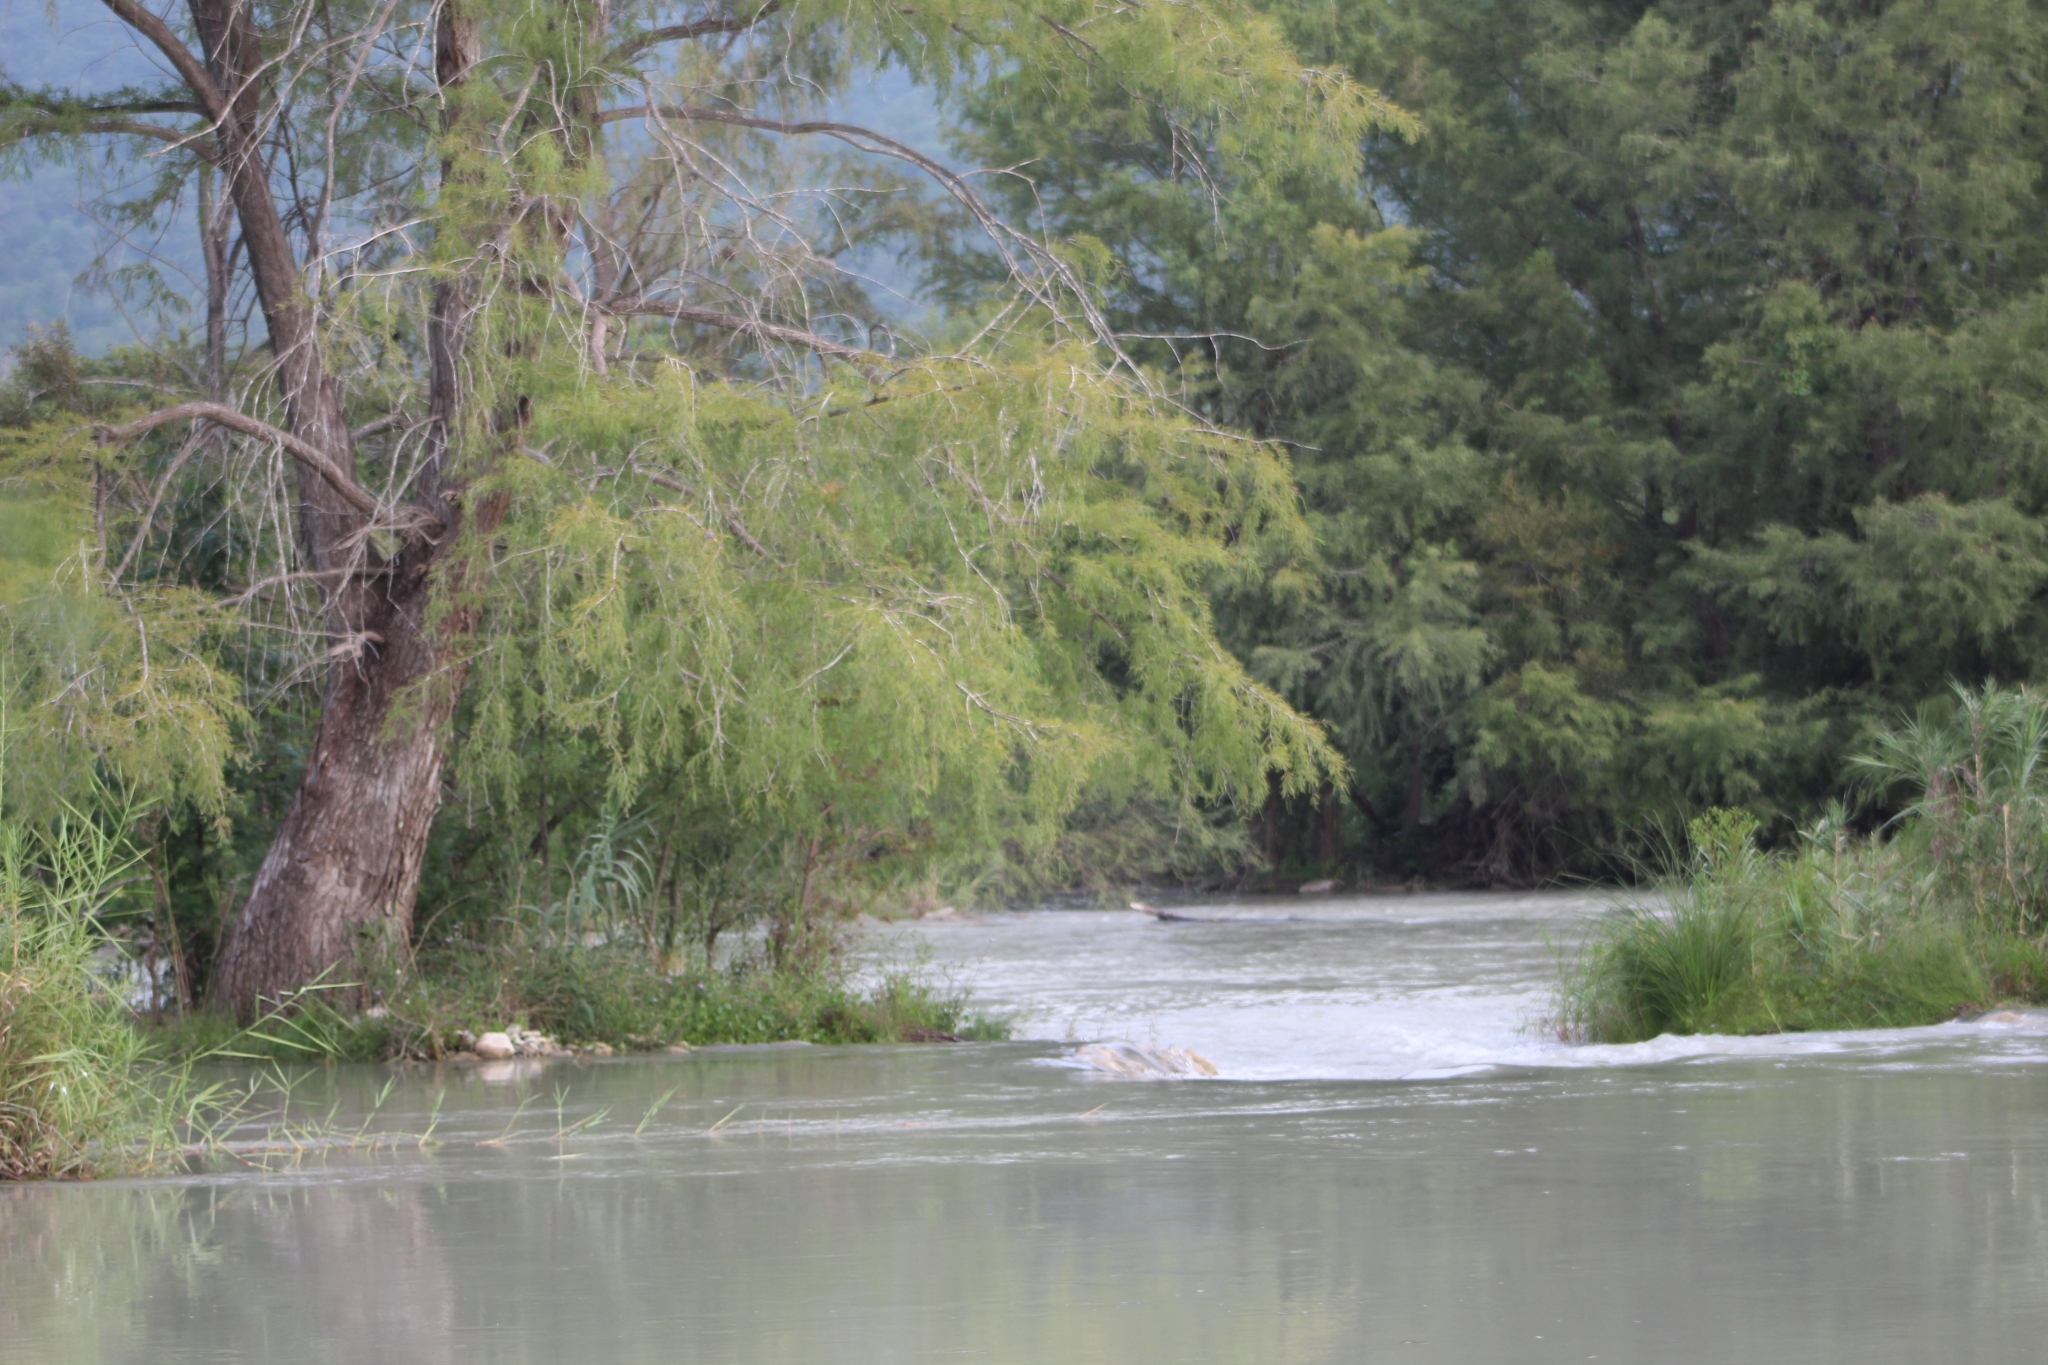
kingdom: Plantae
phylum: Tracheophyta
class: Pinopsida
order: Pinales
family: Cupressaceae
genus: Taxodium
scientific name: Taxodium mucronatum
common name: Montezume bald cypress
